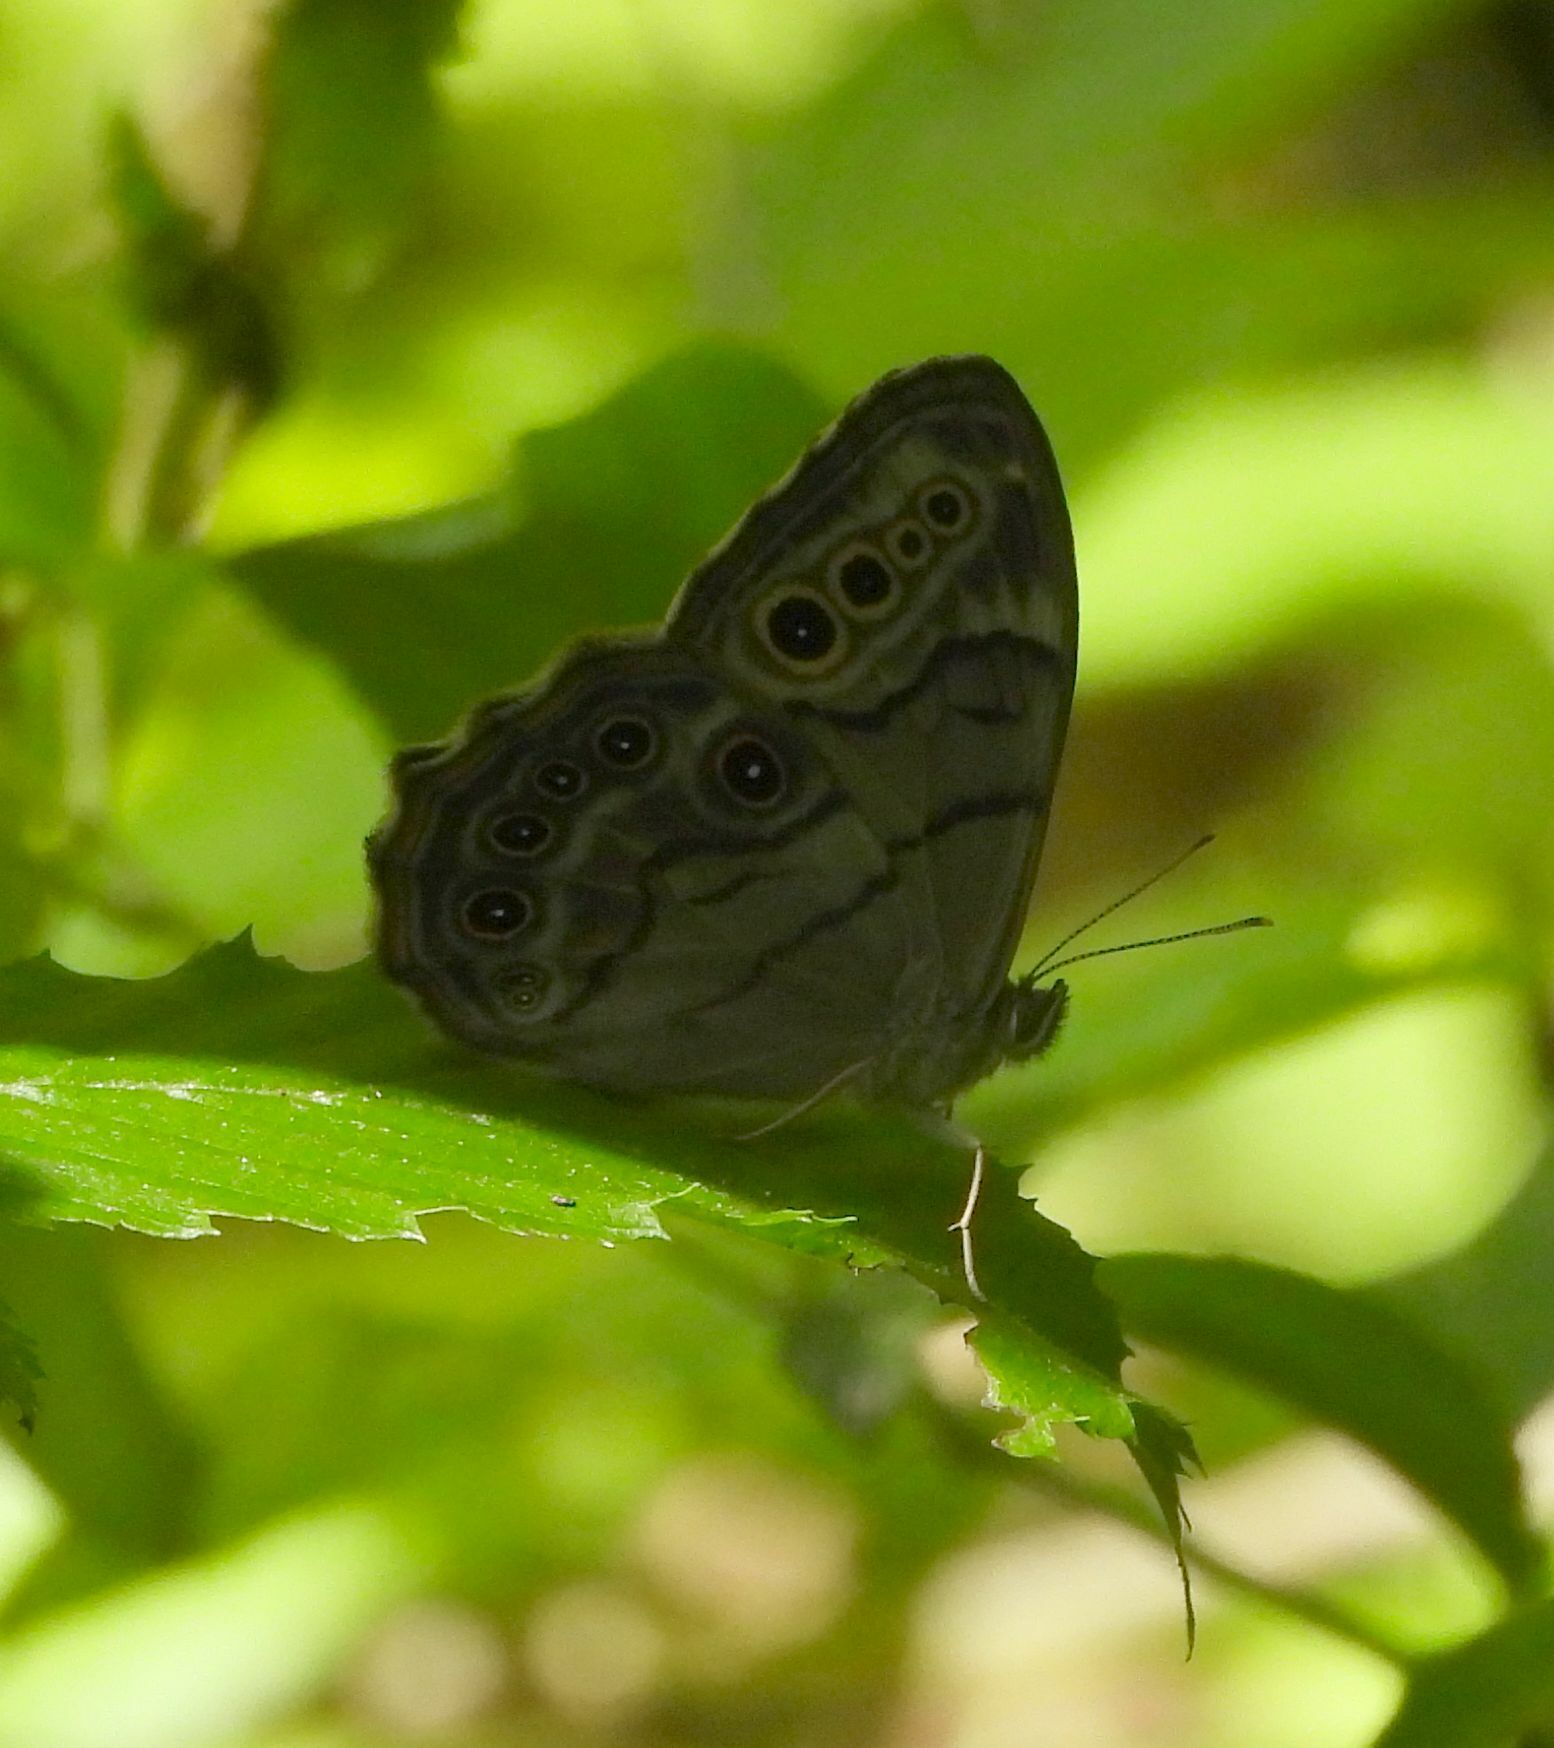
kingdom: Animalia
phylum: Arthropoda
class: Insecta
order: Lepidoptera
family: Nymphalidae
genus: Lethe
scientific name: Lethe anthedon
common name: Northern pearly-eye
